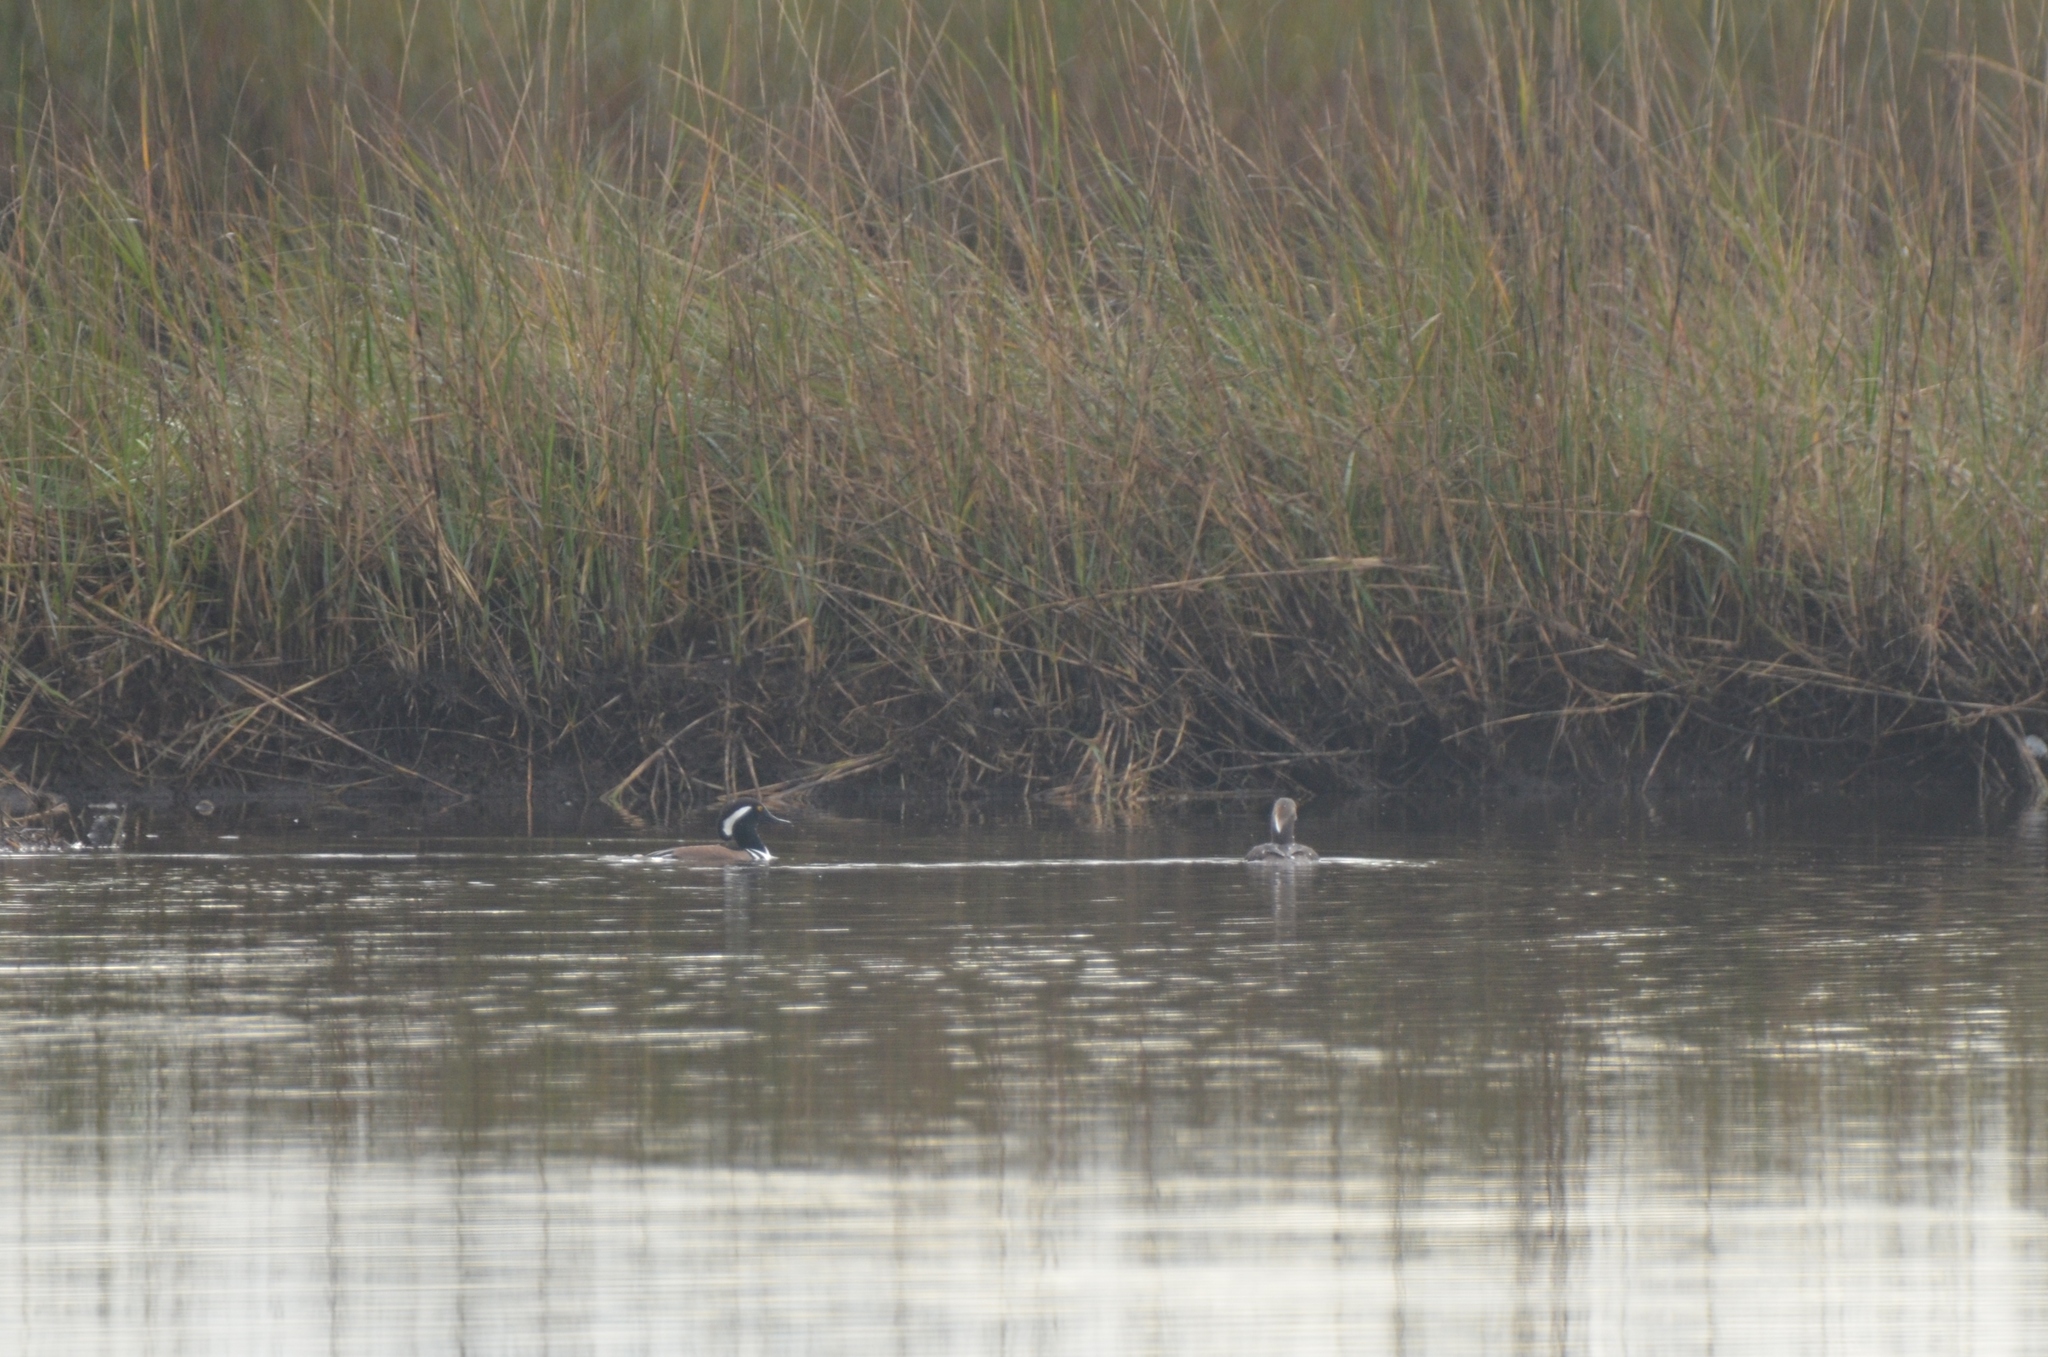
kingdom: Animalia
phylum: Chordata
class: Aves
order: Anseriformes
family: Anatidae
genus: Lophodytes
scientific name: Lophodytes cucullatus
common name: Hooded merganser
